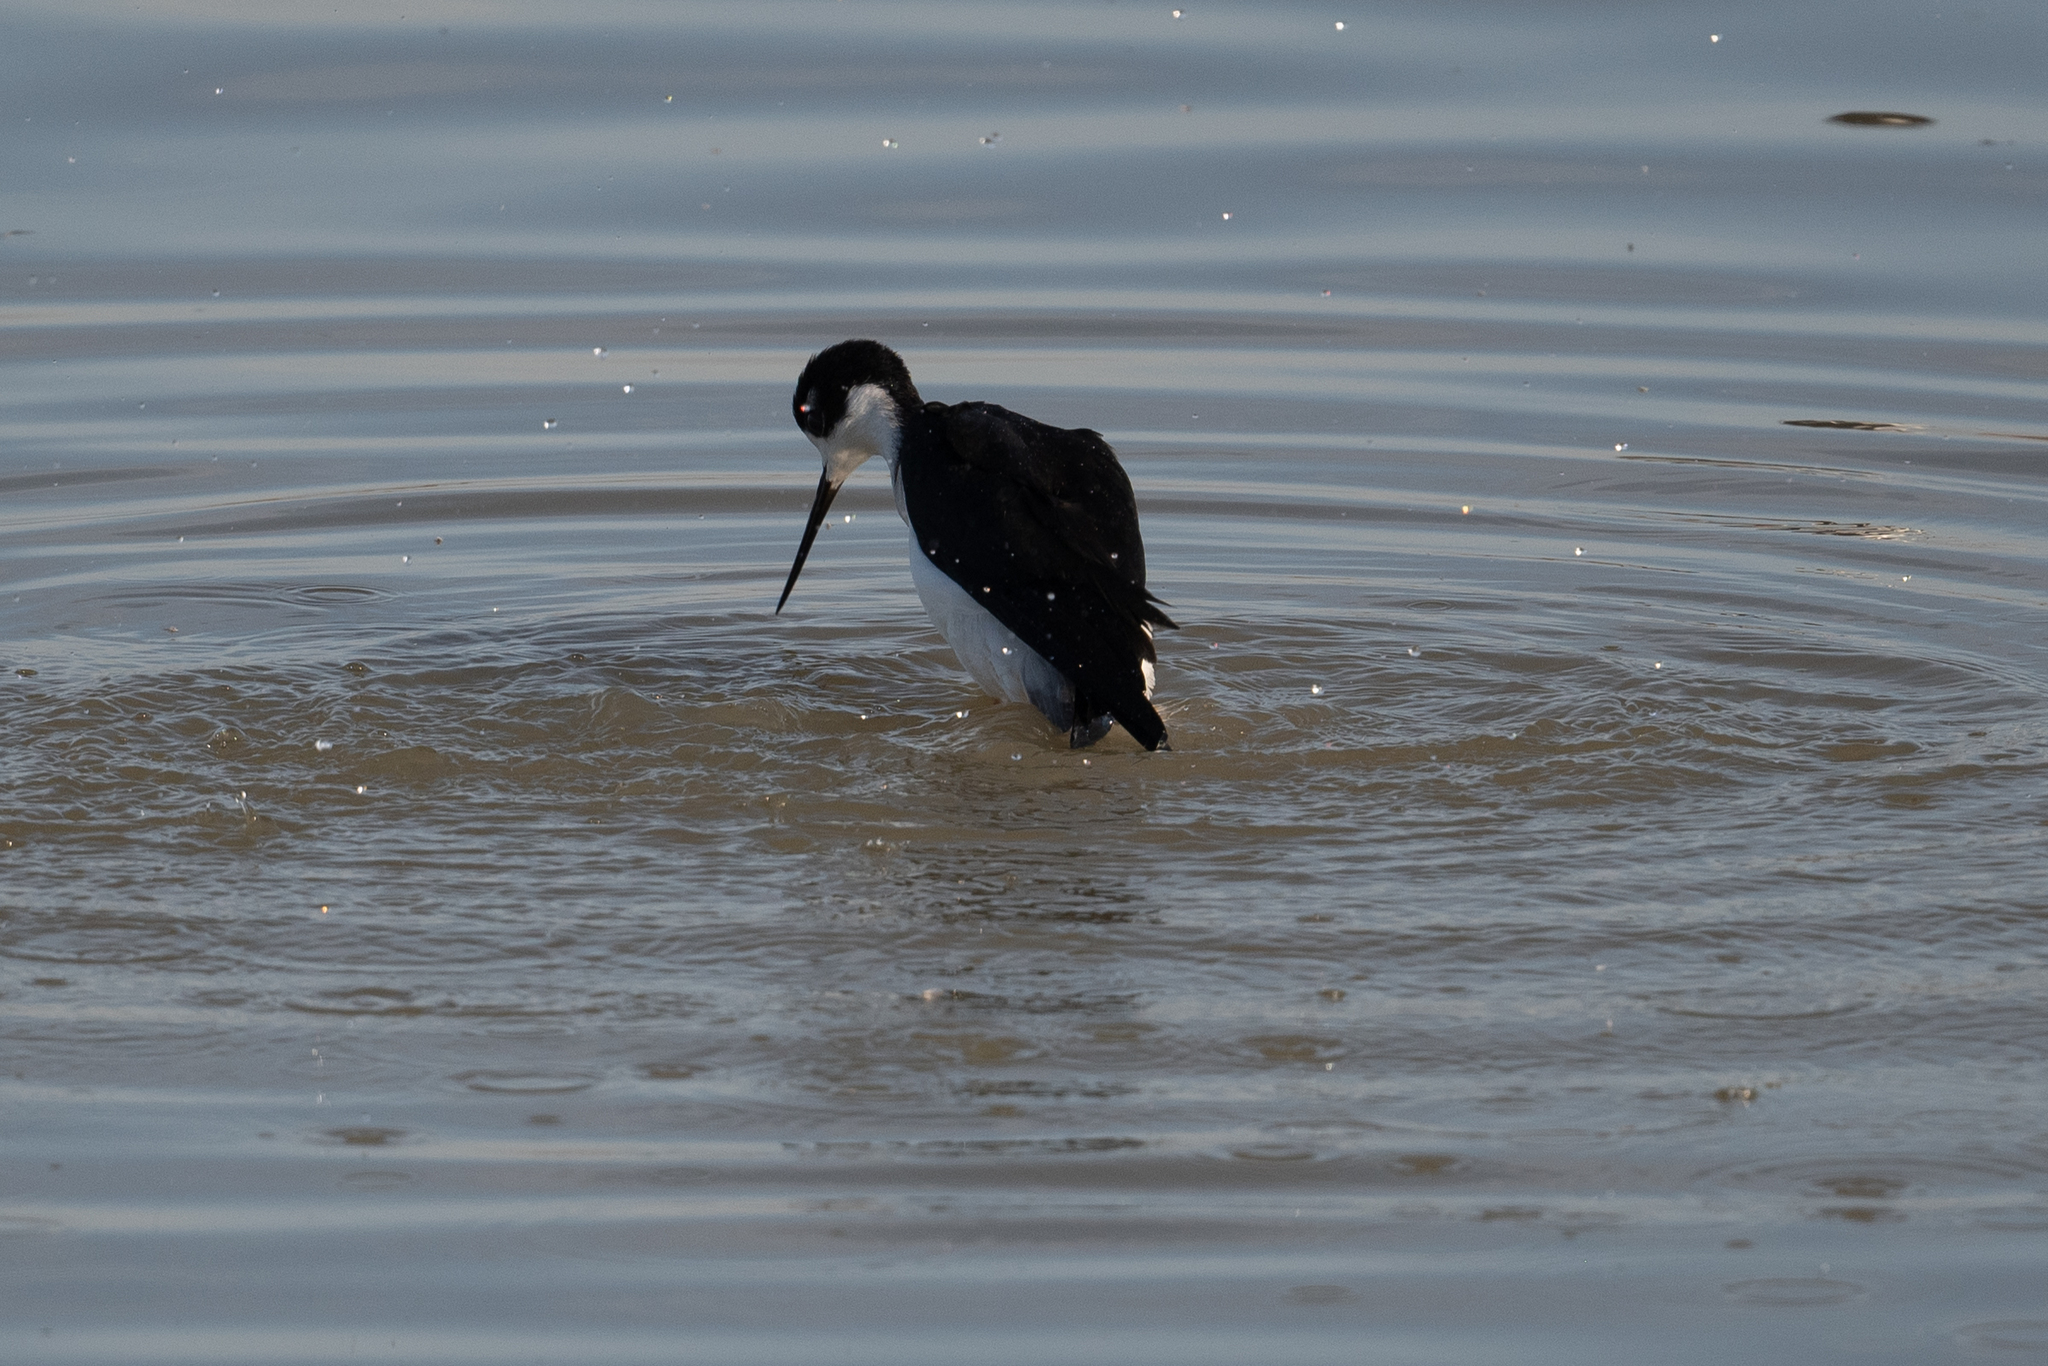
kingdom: Animalia
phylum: Chordata
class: Aves
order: Charadriiformes
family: Recurvirostridae
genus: Himantopus
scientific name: Himantopus mexicanus
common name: Black-necked stilt
